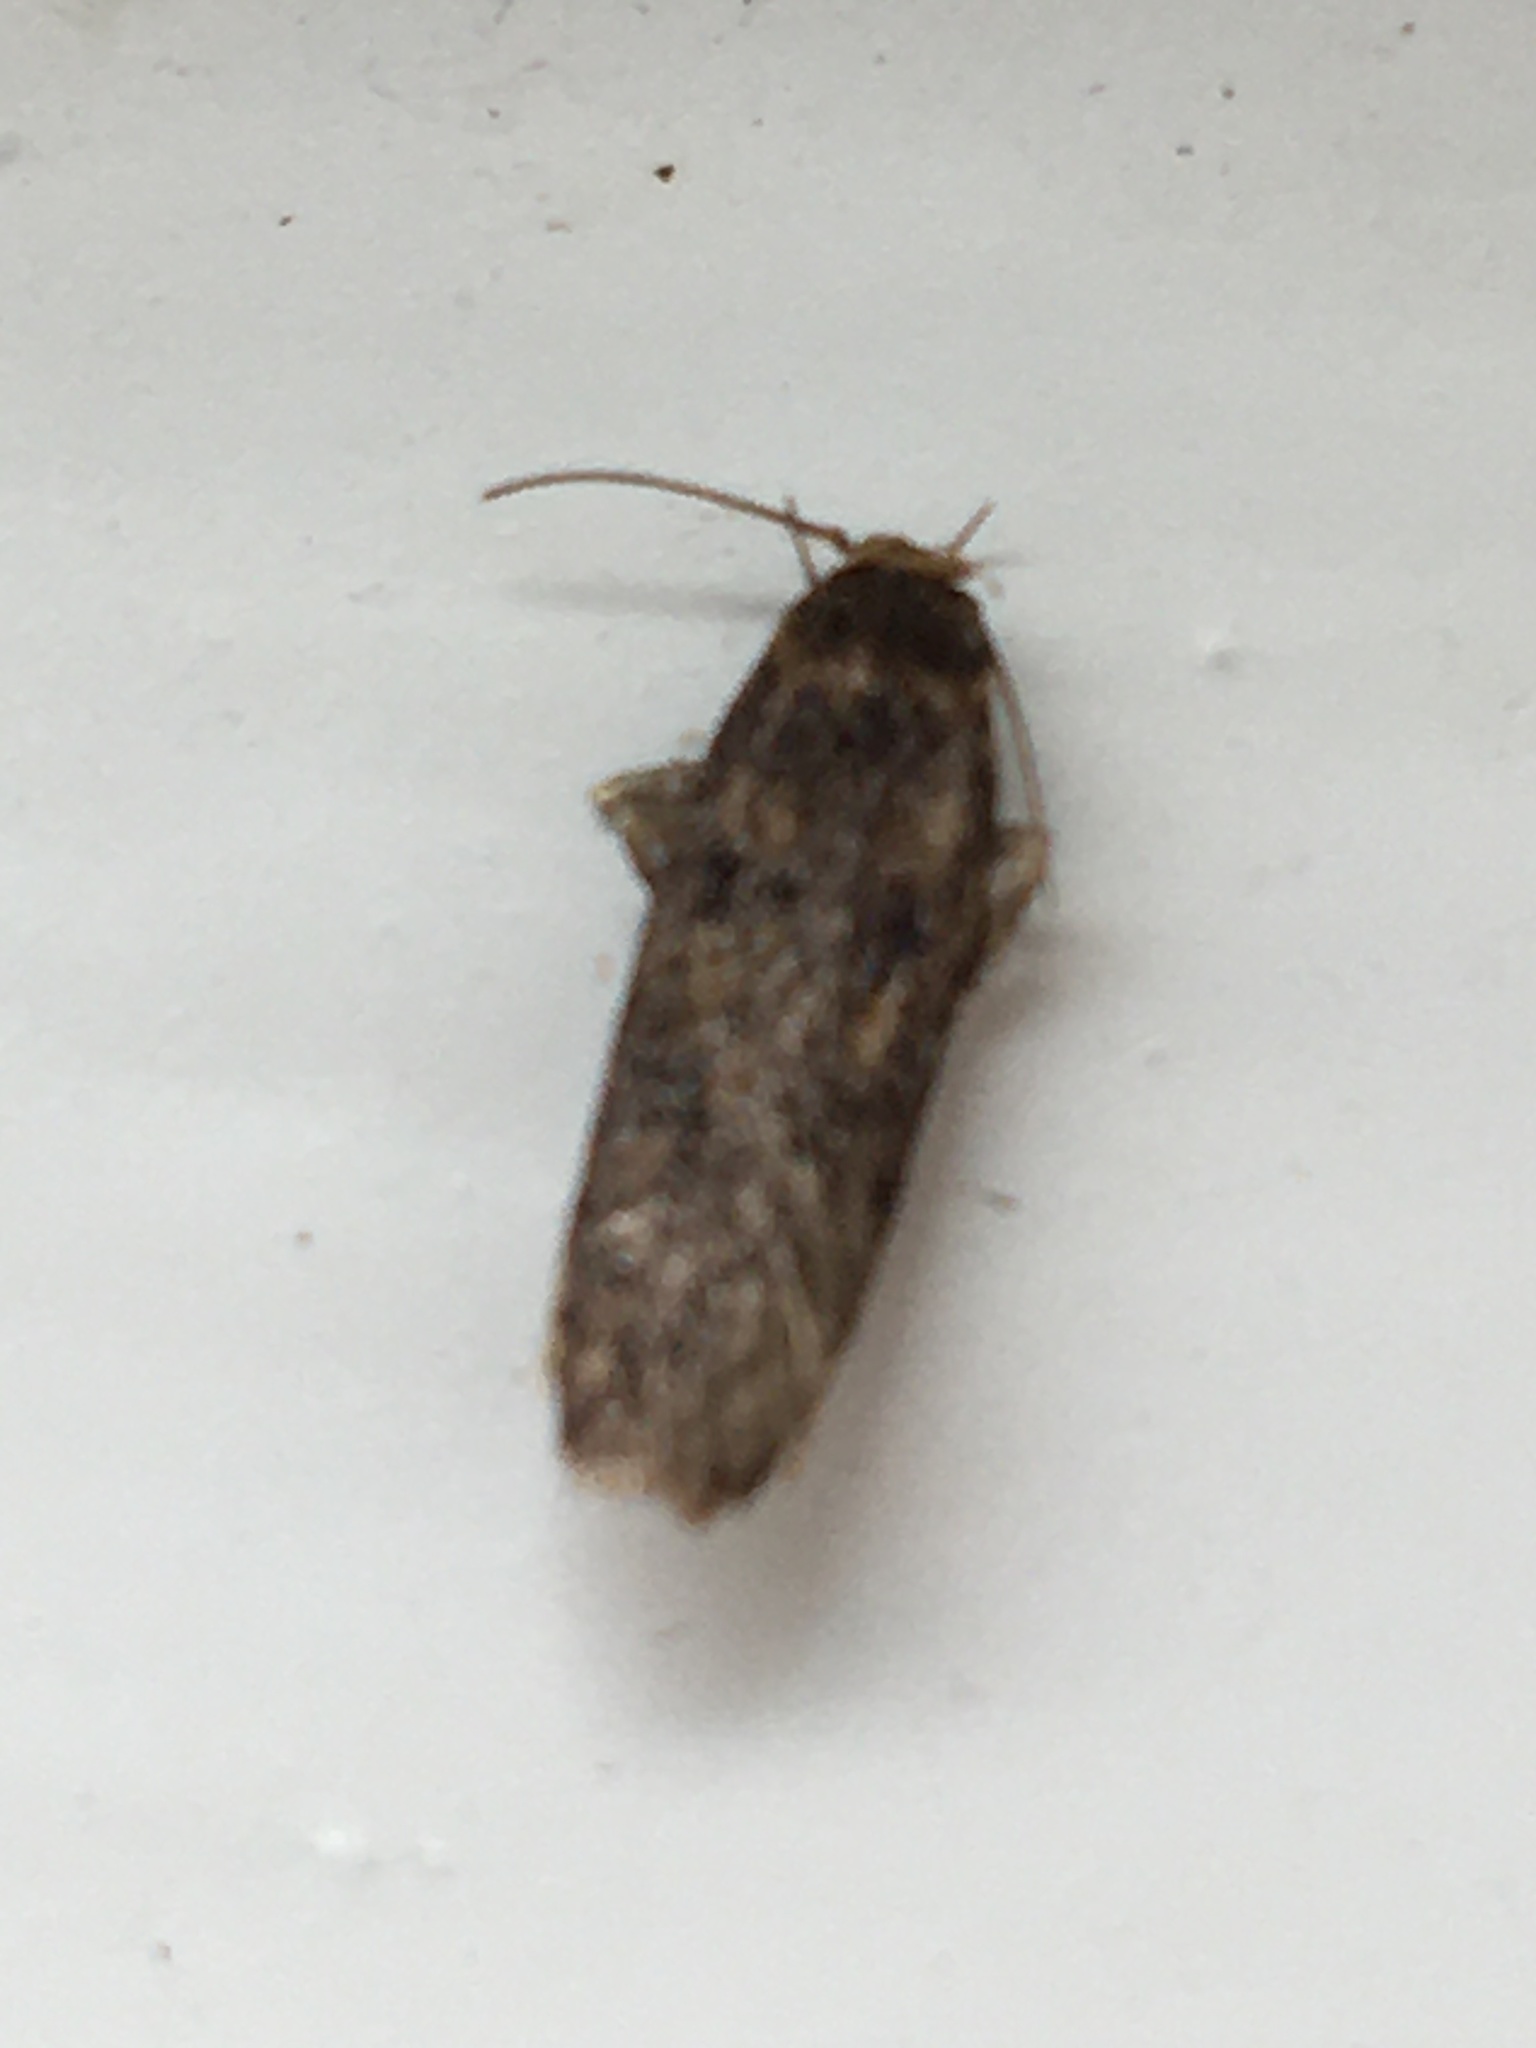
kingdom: Animalia
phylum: Arthropoda
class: Insecta
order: Lepidoptera
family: Oecophoridae
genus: Hofmannophila
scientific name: Hofmannophila pseudospretella
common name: Brown house moth
